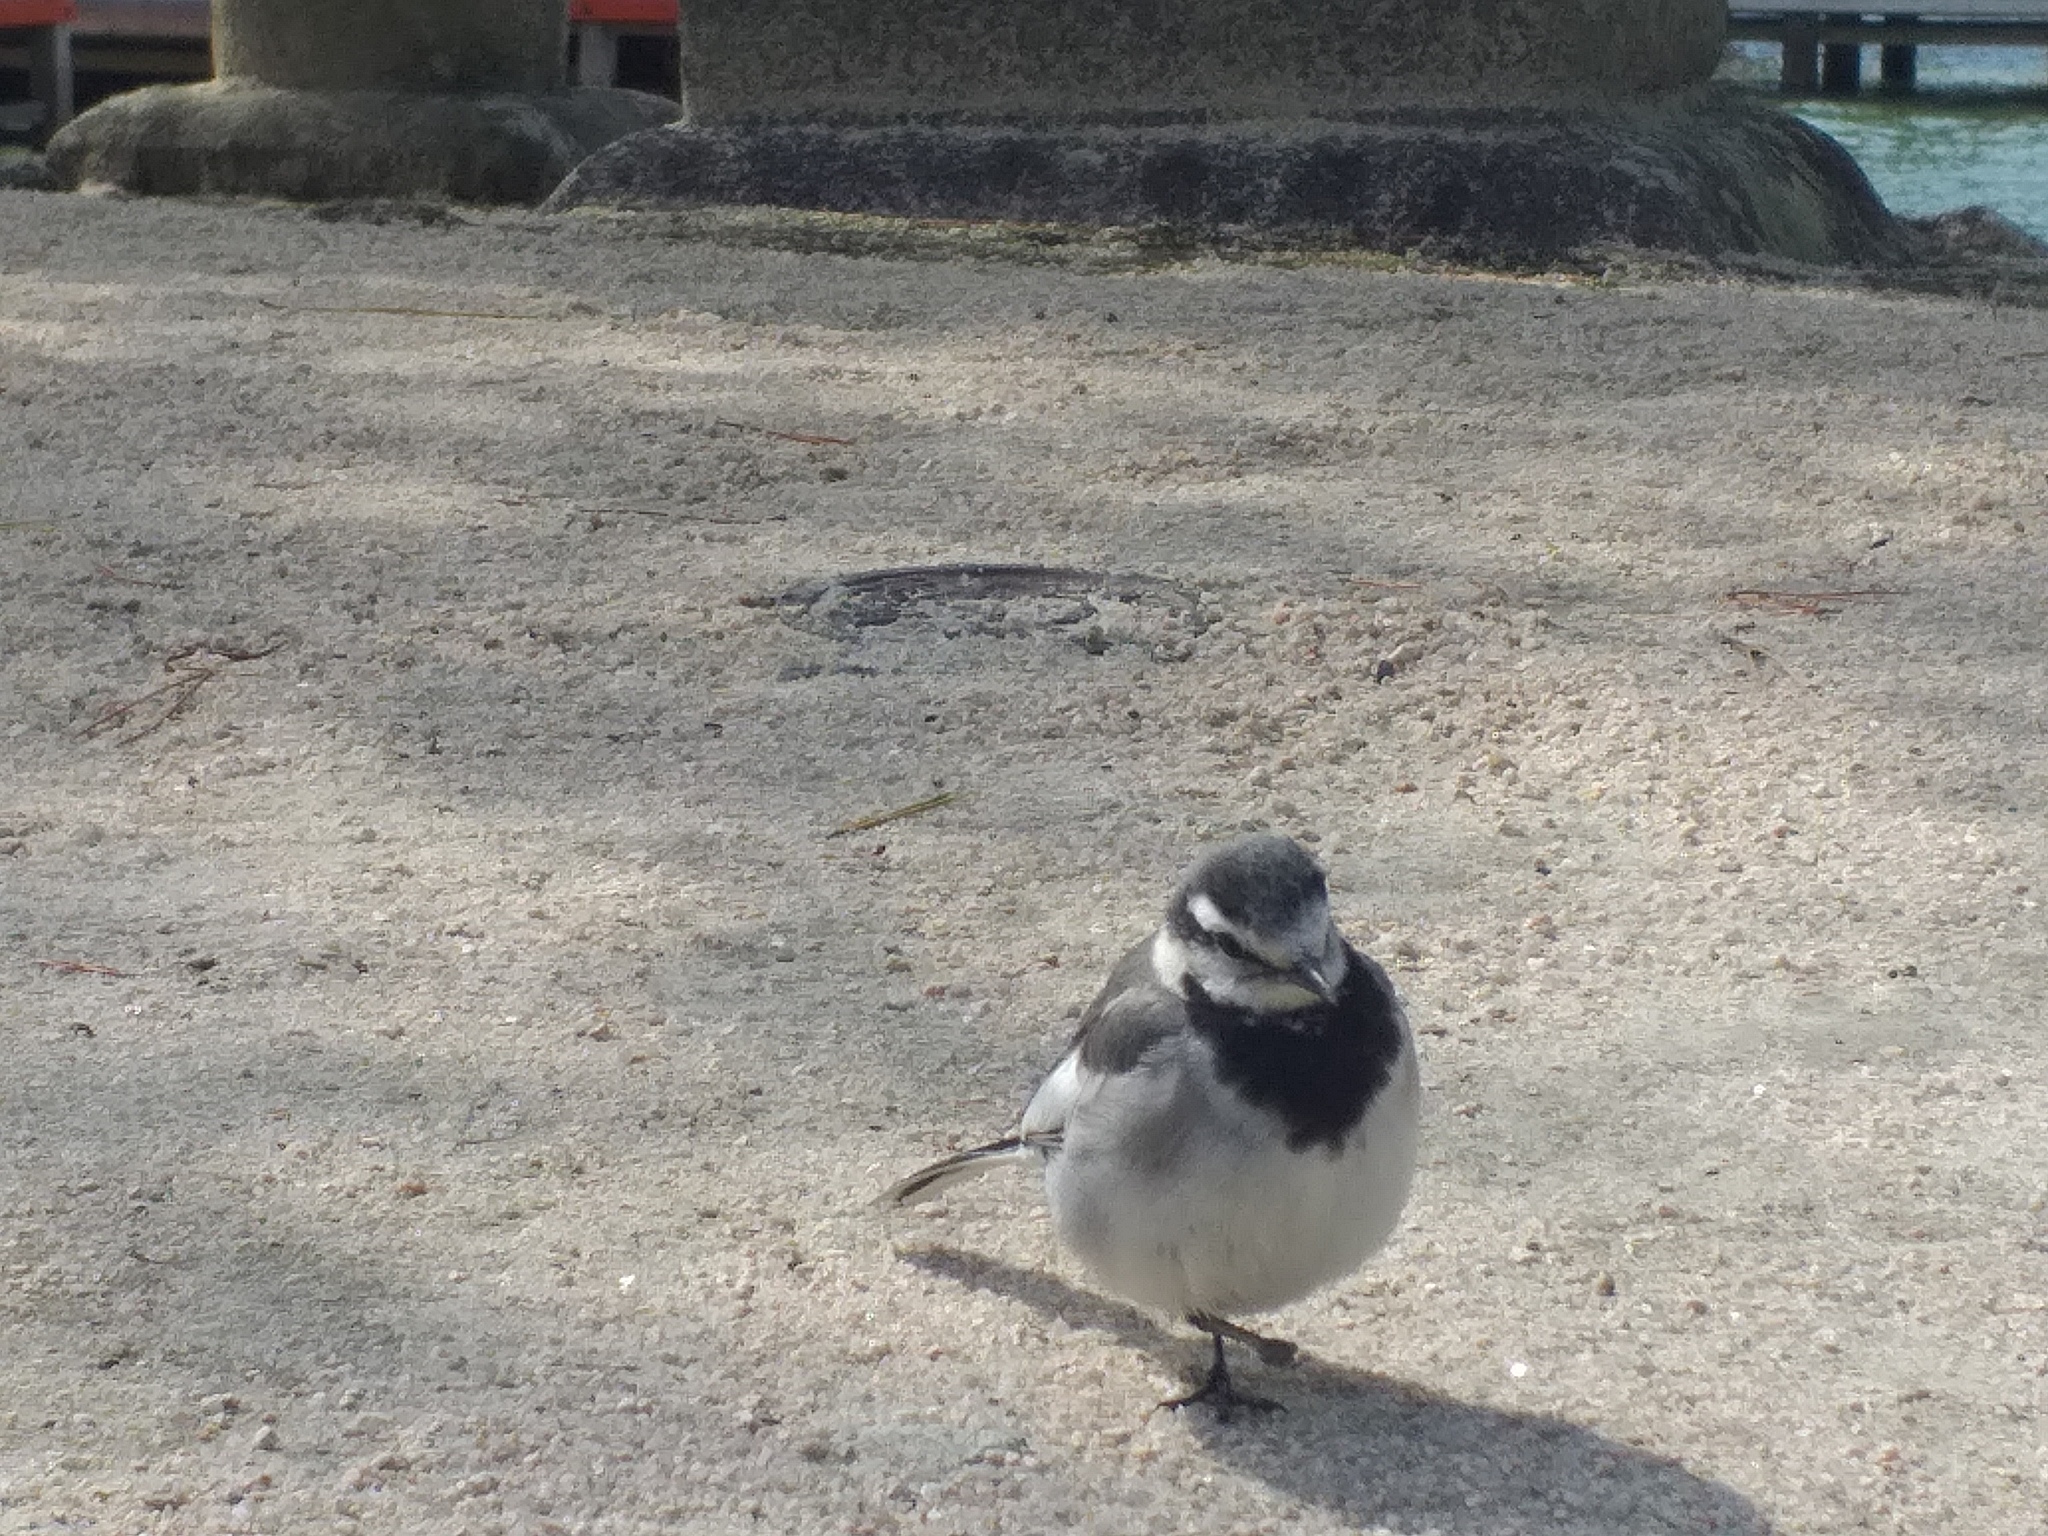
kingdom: Animalia
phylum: Chordata
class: Aves
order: Passeriformes
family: Motacillidae
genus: Motacilla
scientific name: Motacilla alba
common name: White wagtail
